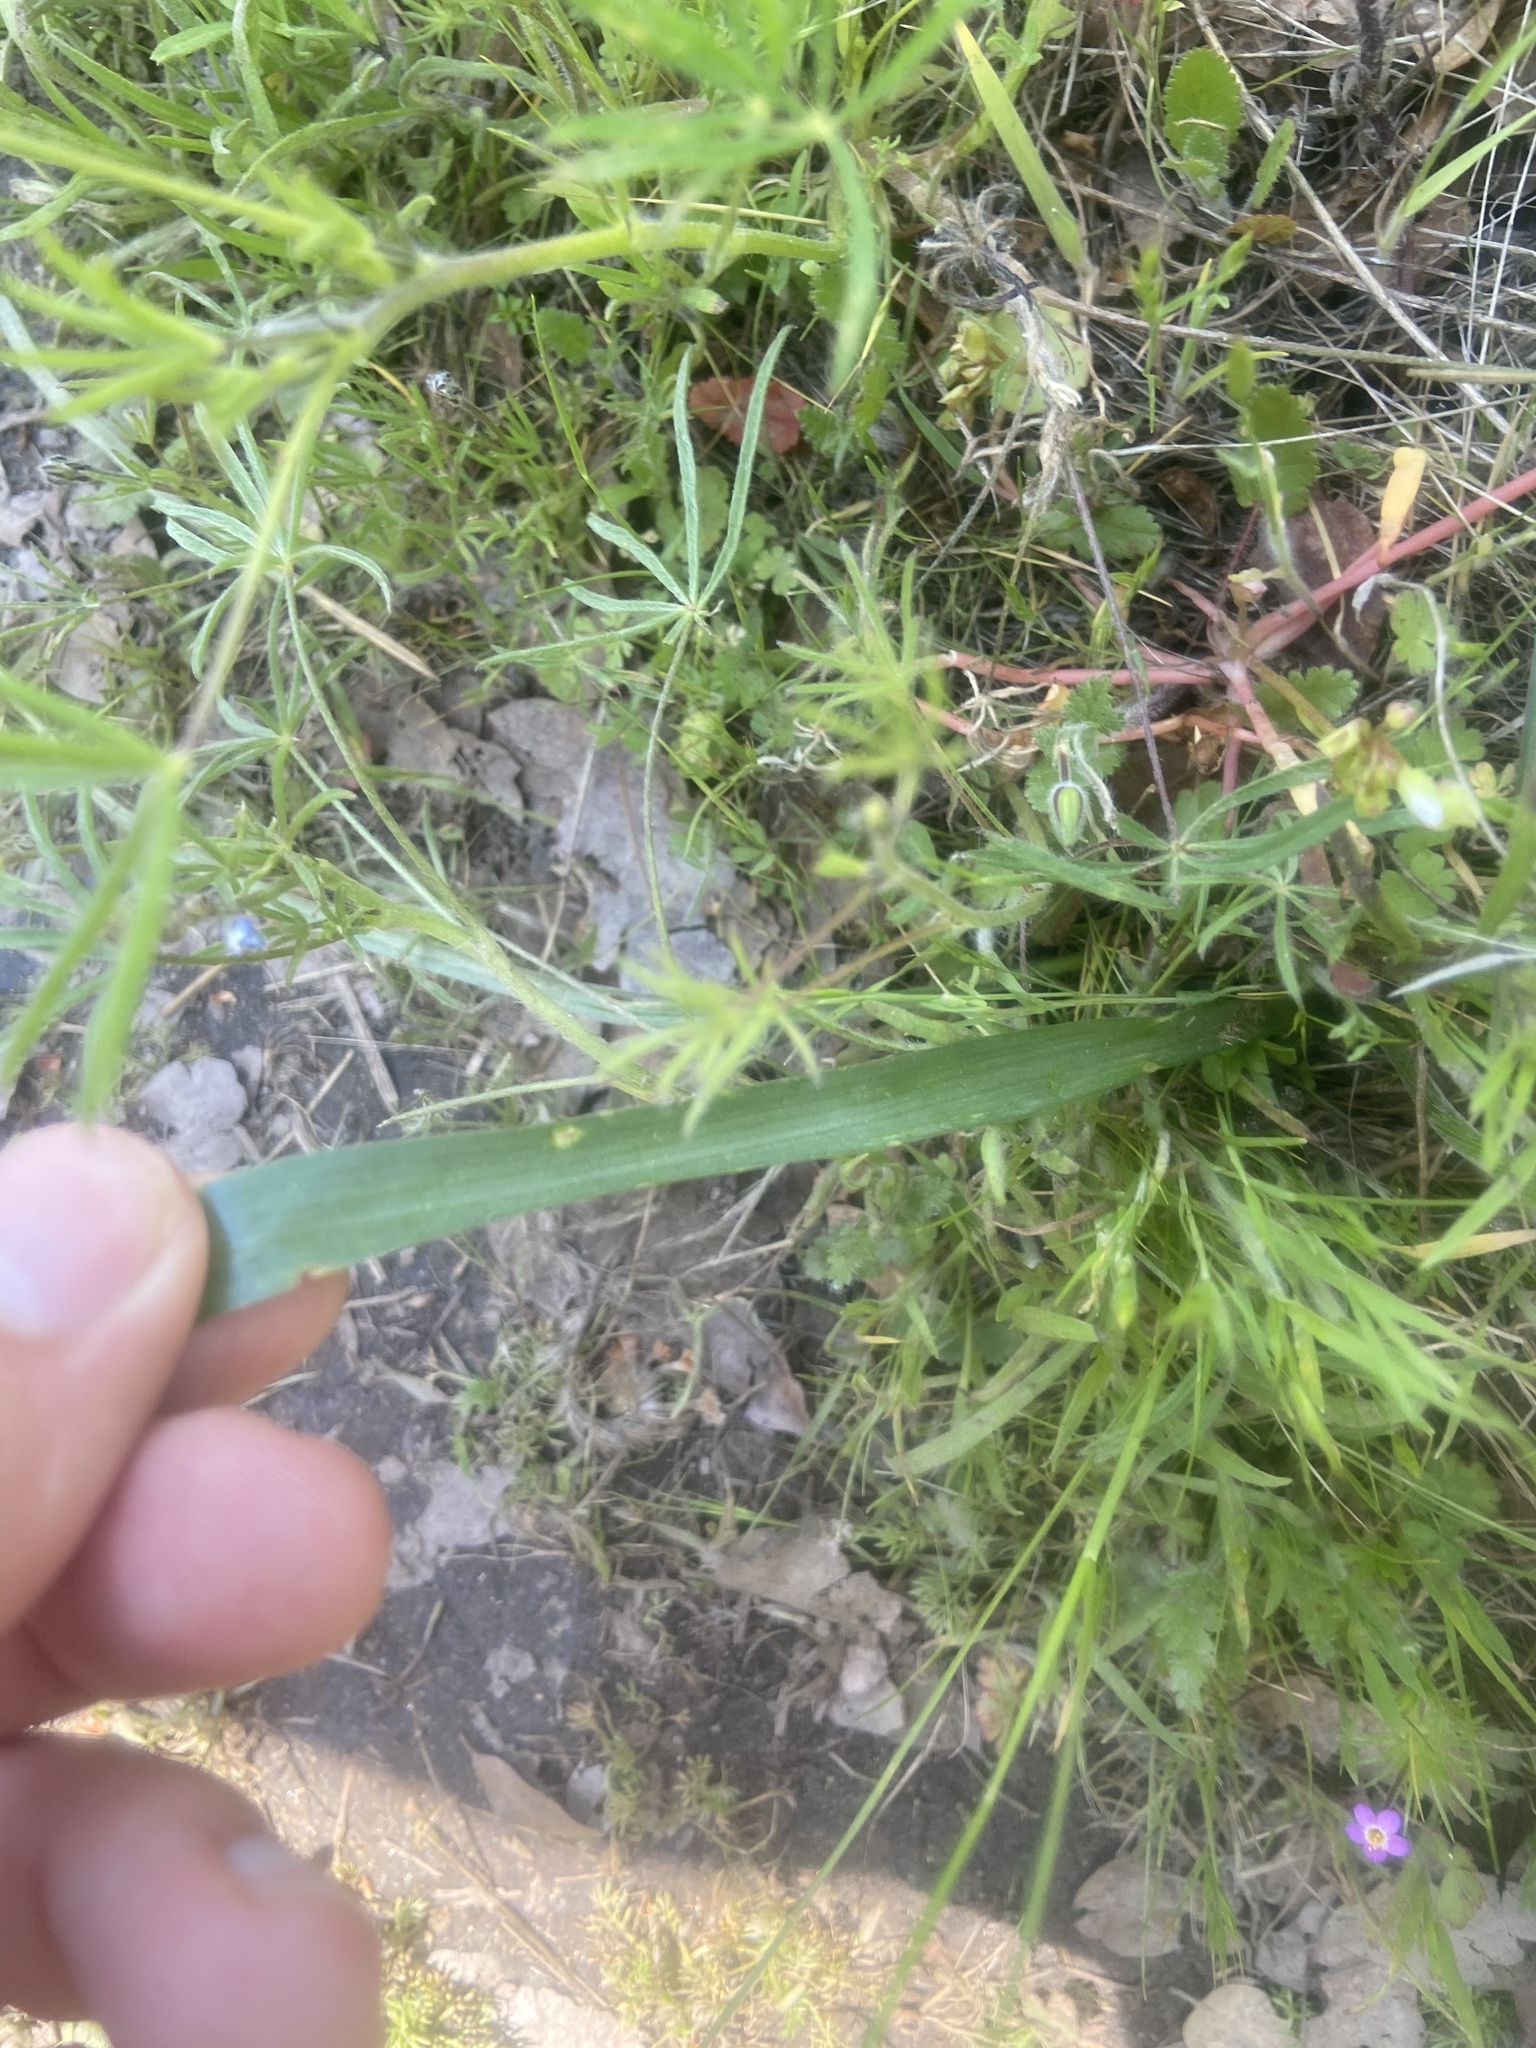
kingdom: Plantae
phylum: Tracheophyta
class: Liliopsida
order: Asparagales
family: Asparagaceae
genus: Triteleia
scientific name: Triteleia ixioides
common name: Yellow-brodiaea
